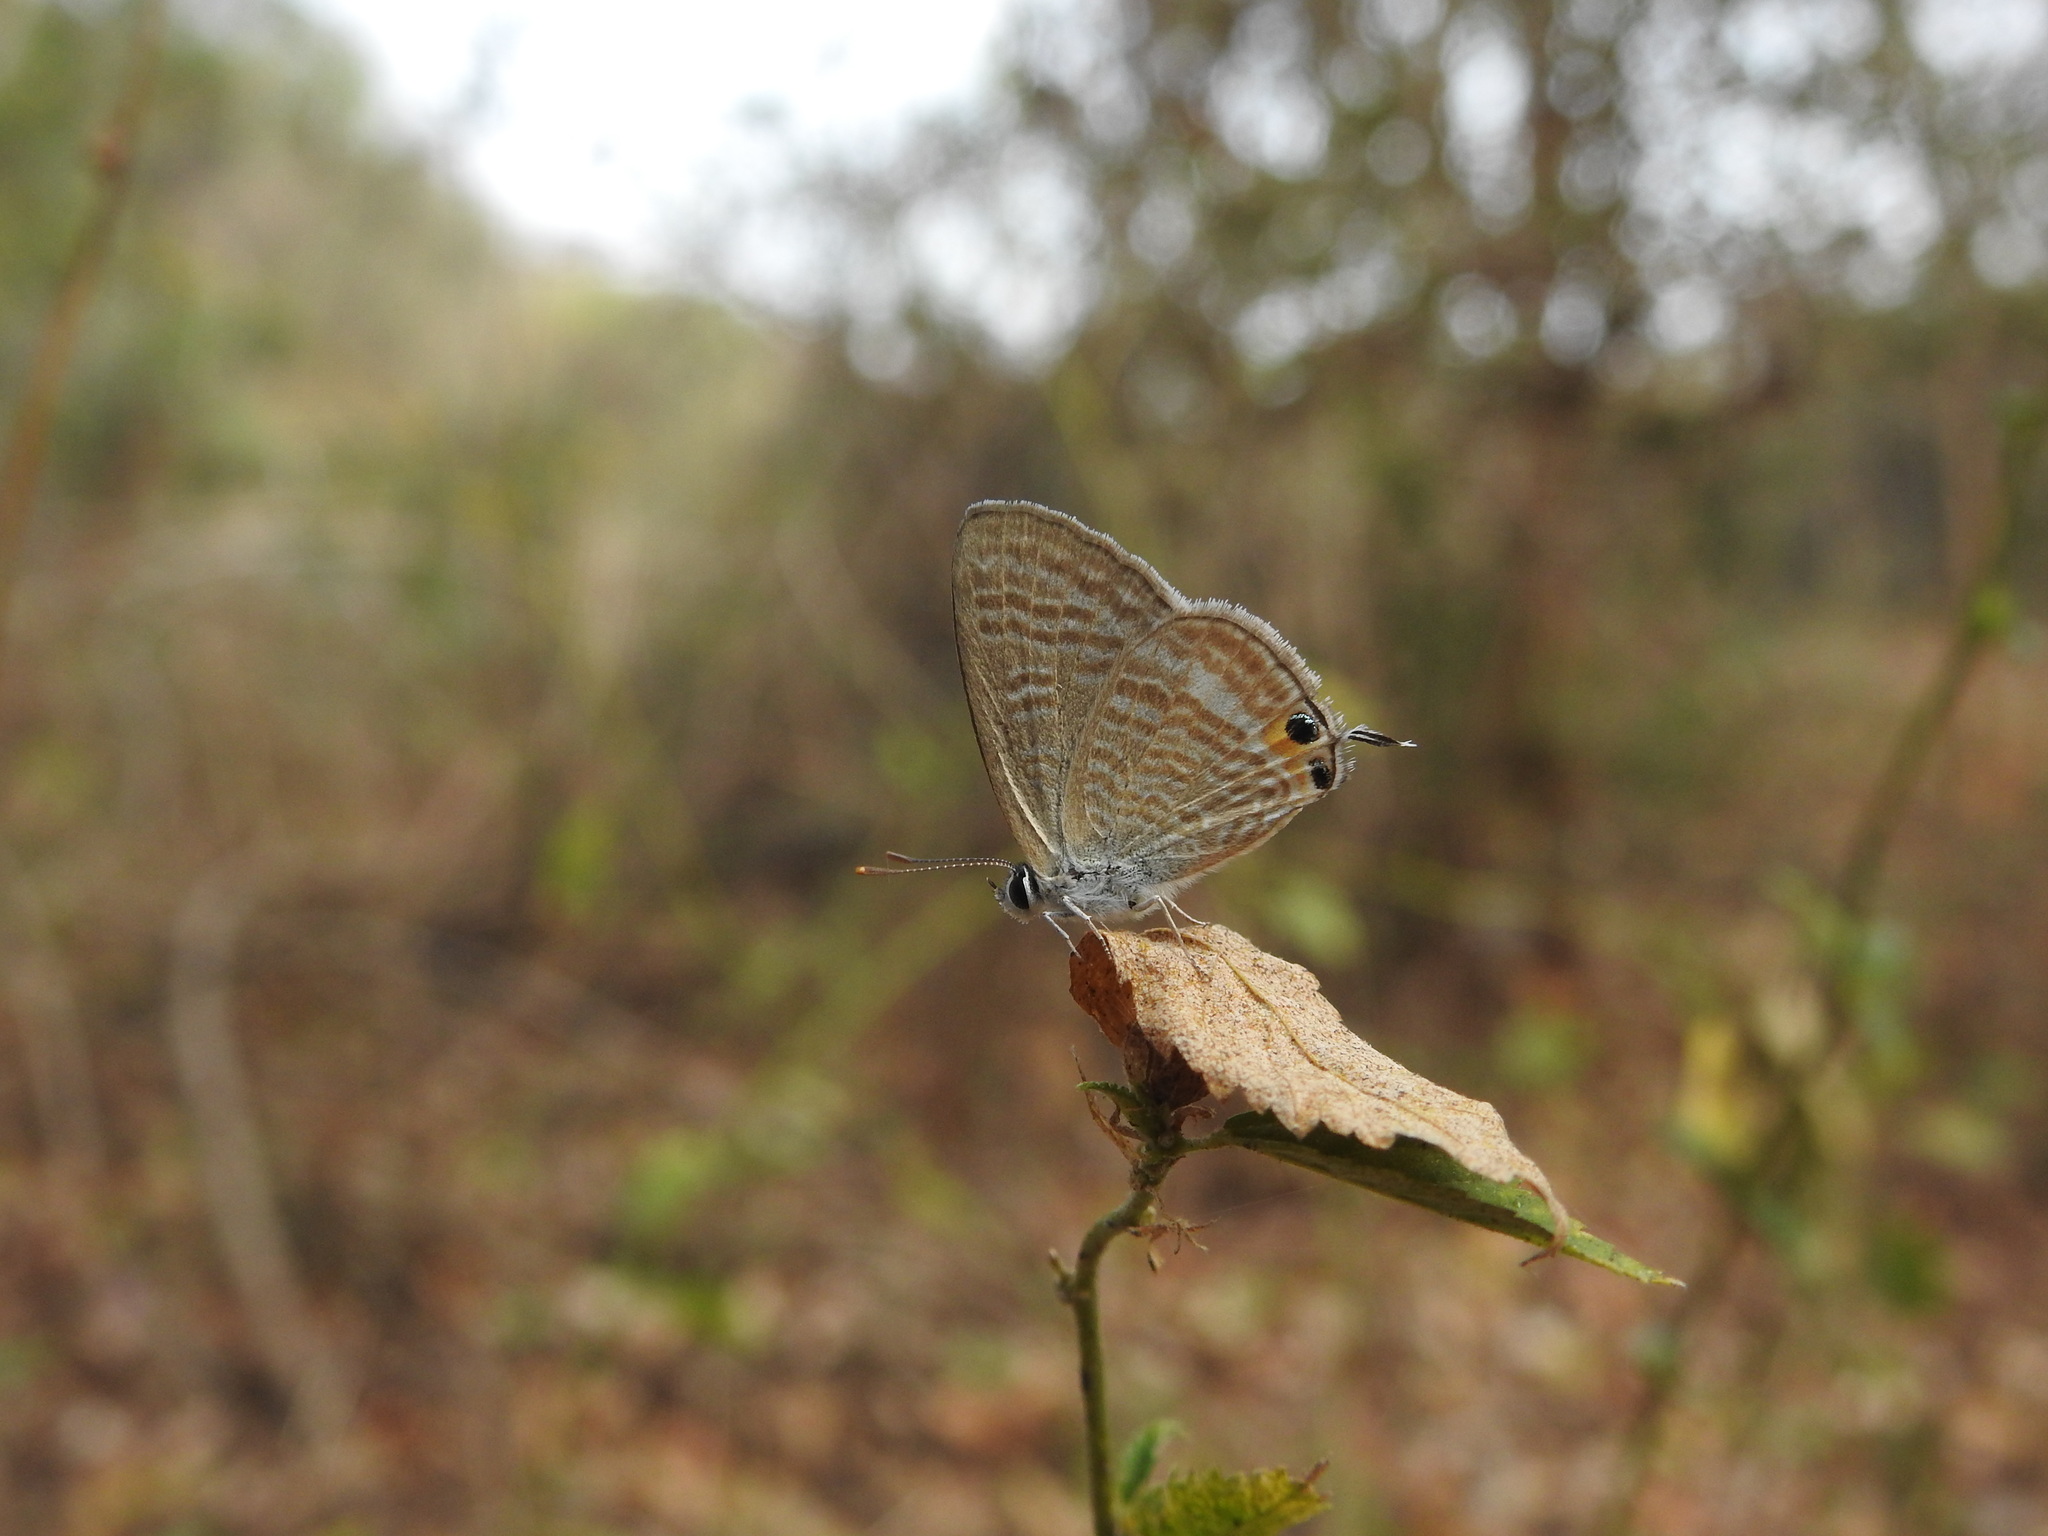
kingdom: Animalia
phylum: Arthropoda
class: Insecta
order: Lepidoptera
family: Lycaenidae
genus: Lampides
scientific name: Lampides boeticus
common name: Long-tailed blue
